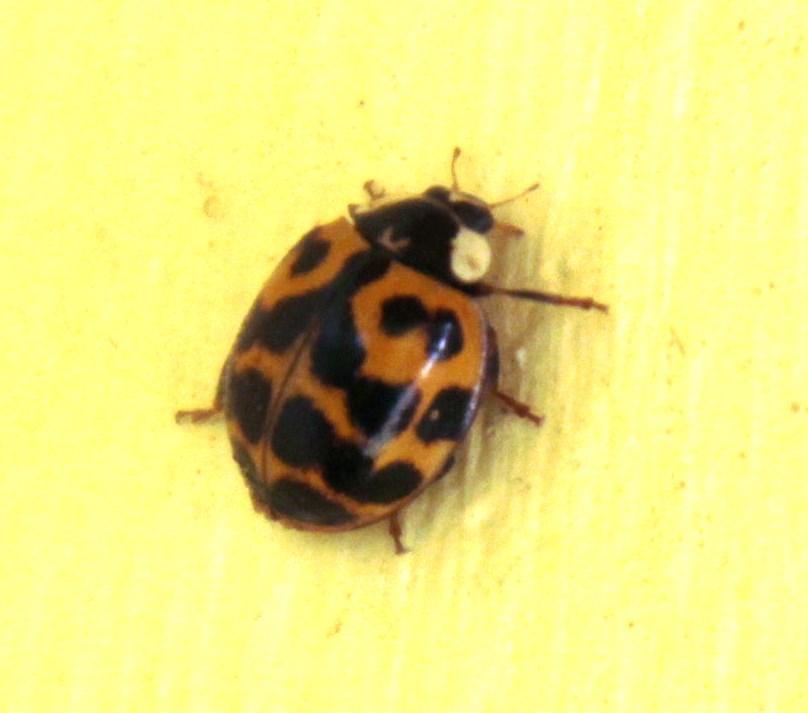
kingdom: Animalia
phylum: Arthropoda
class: Insecta
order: Coleoptera
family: Coccinellidae
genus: Harmonia
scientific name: Harmonia axyridis
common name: Harlequin ladybird
